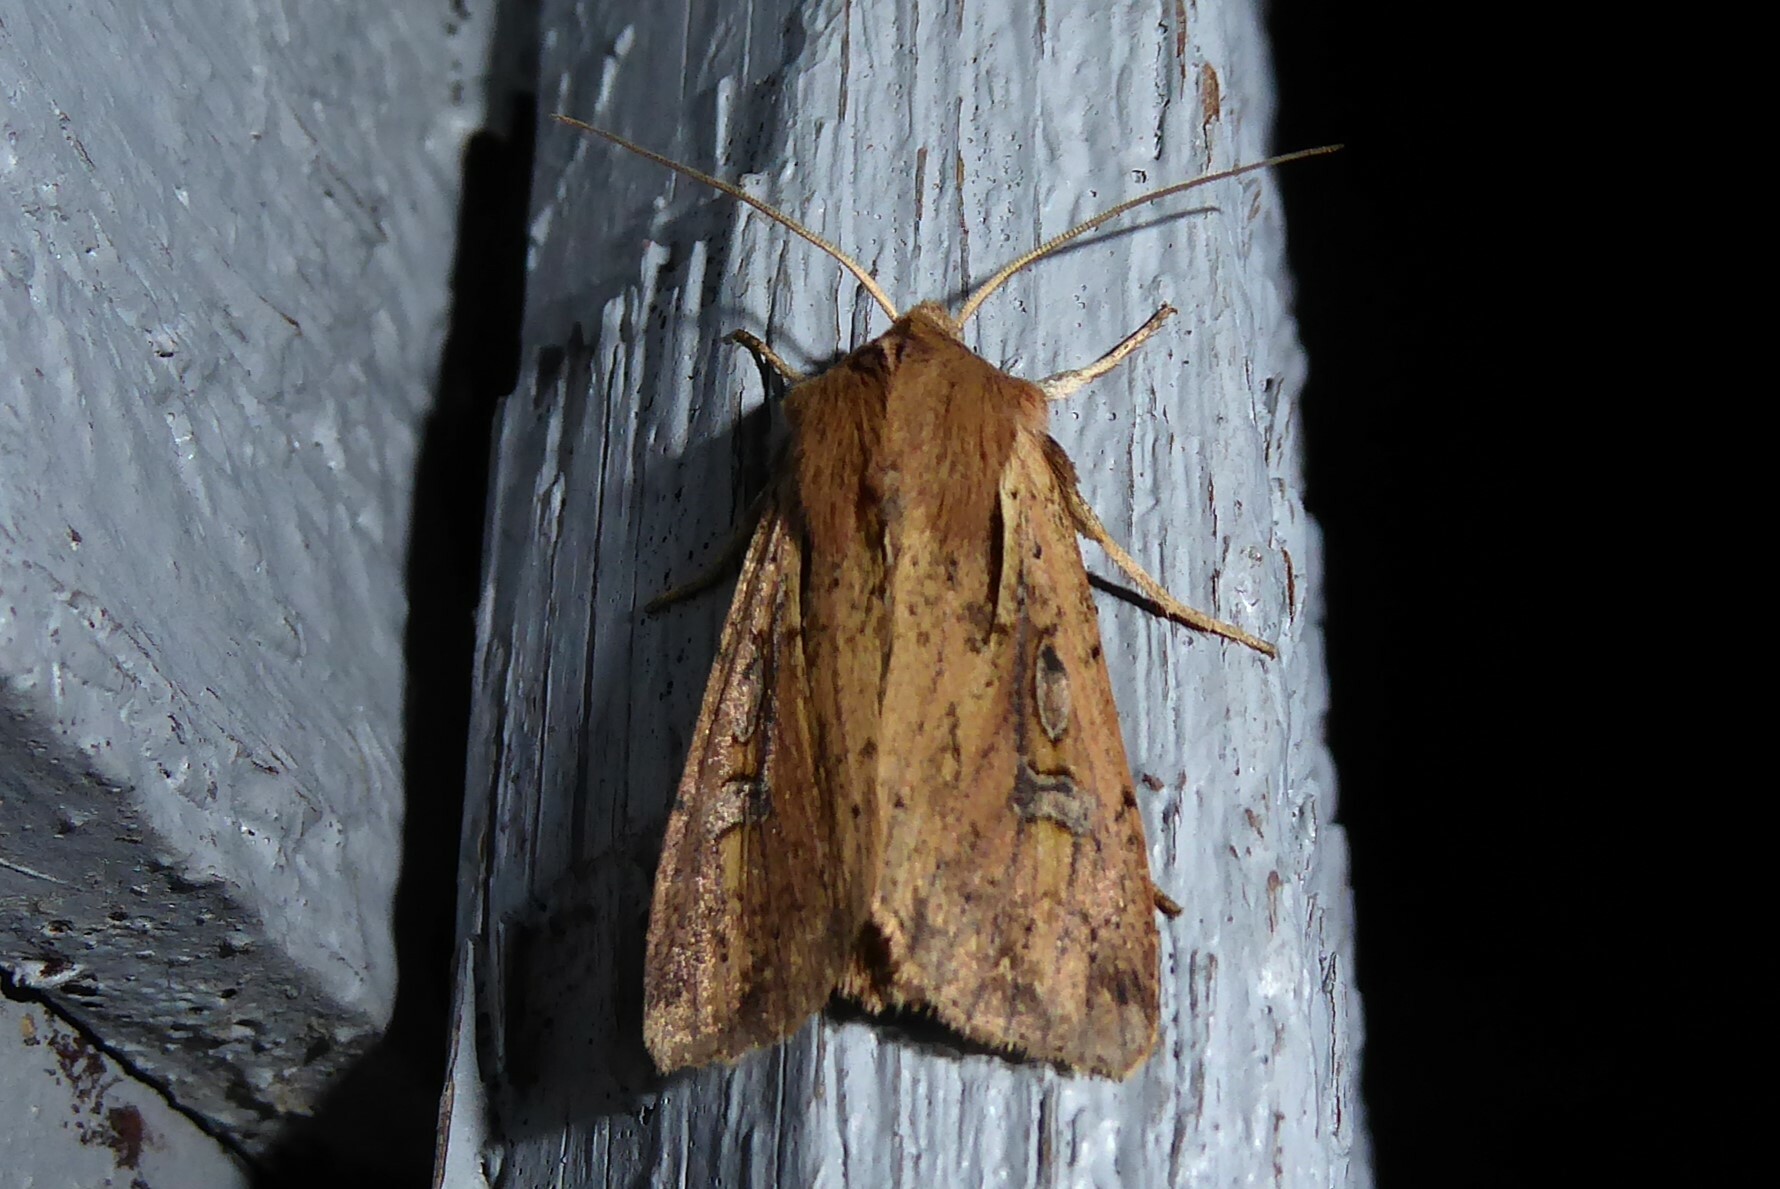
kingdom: Animalia
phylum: Arthropoda
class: Insecta
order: Lepidoptera
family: Noctuidae
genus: Ichneutica
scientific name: Ichneutica atristriga
